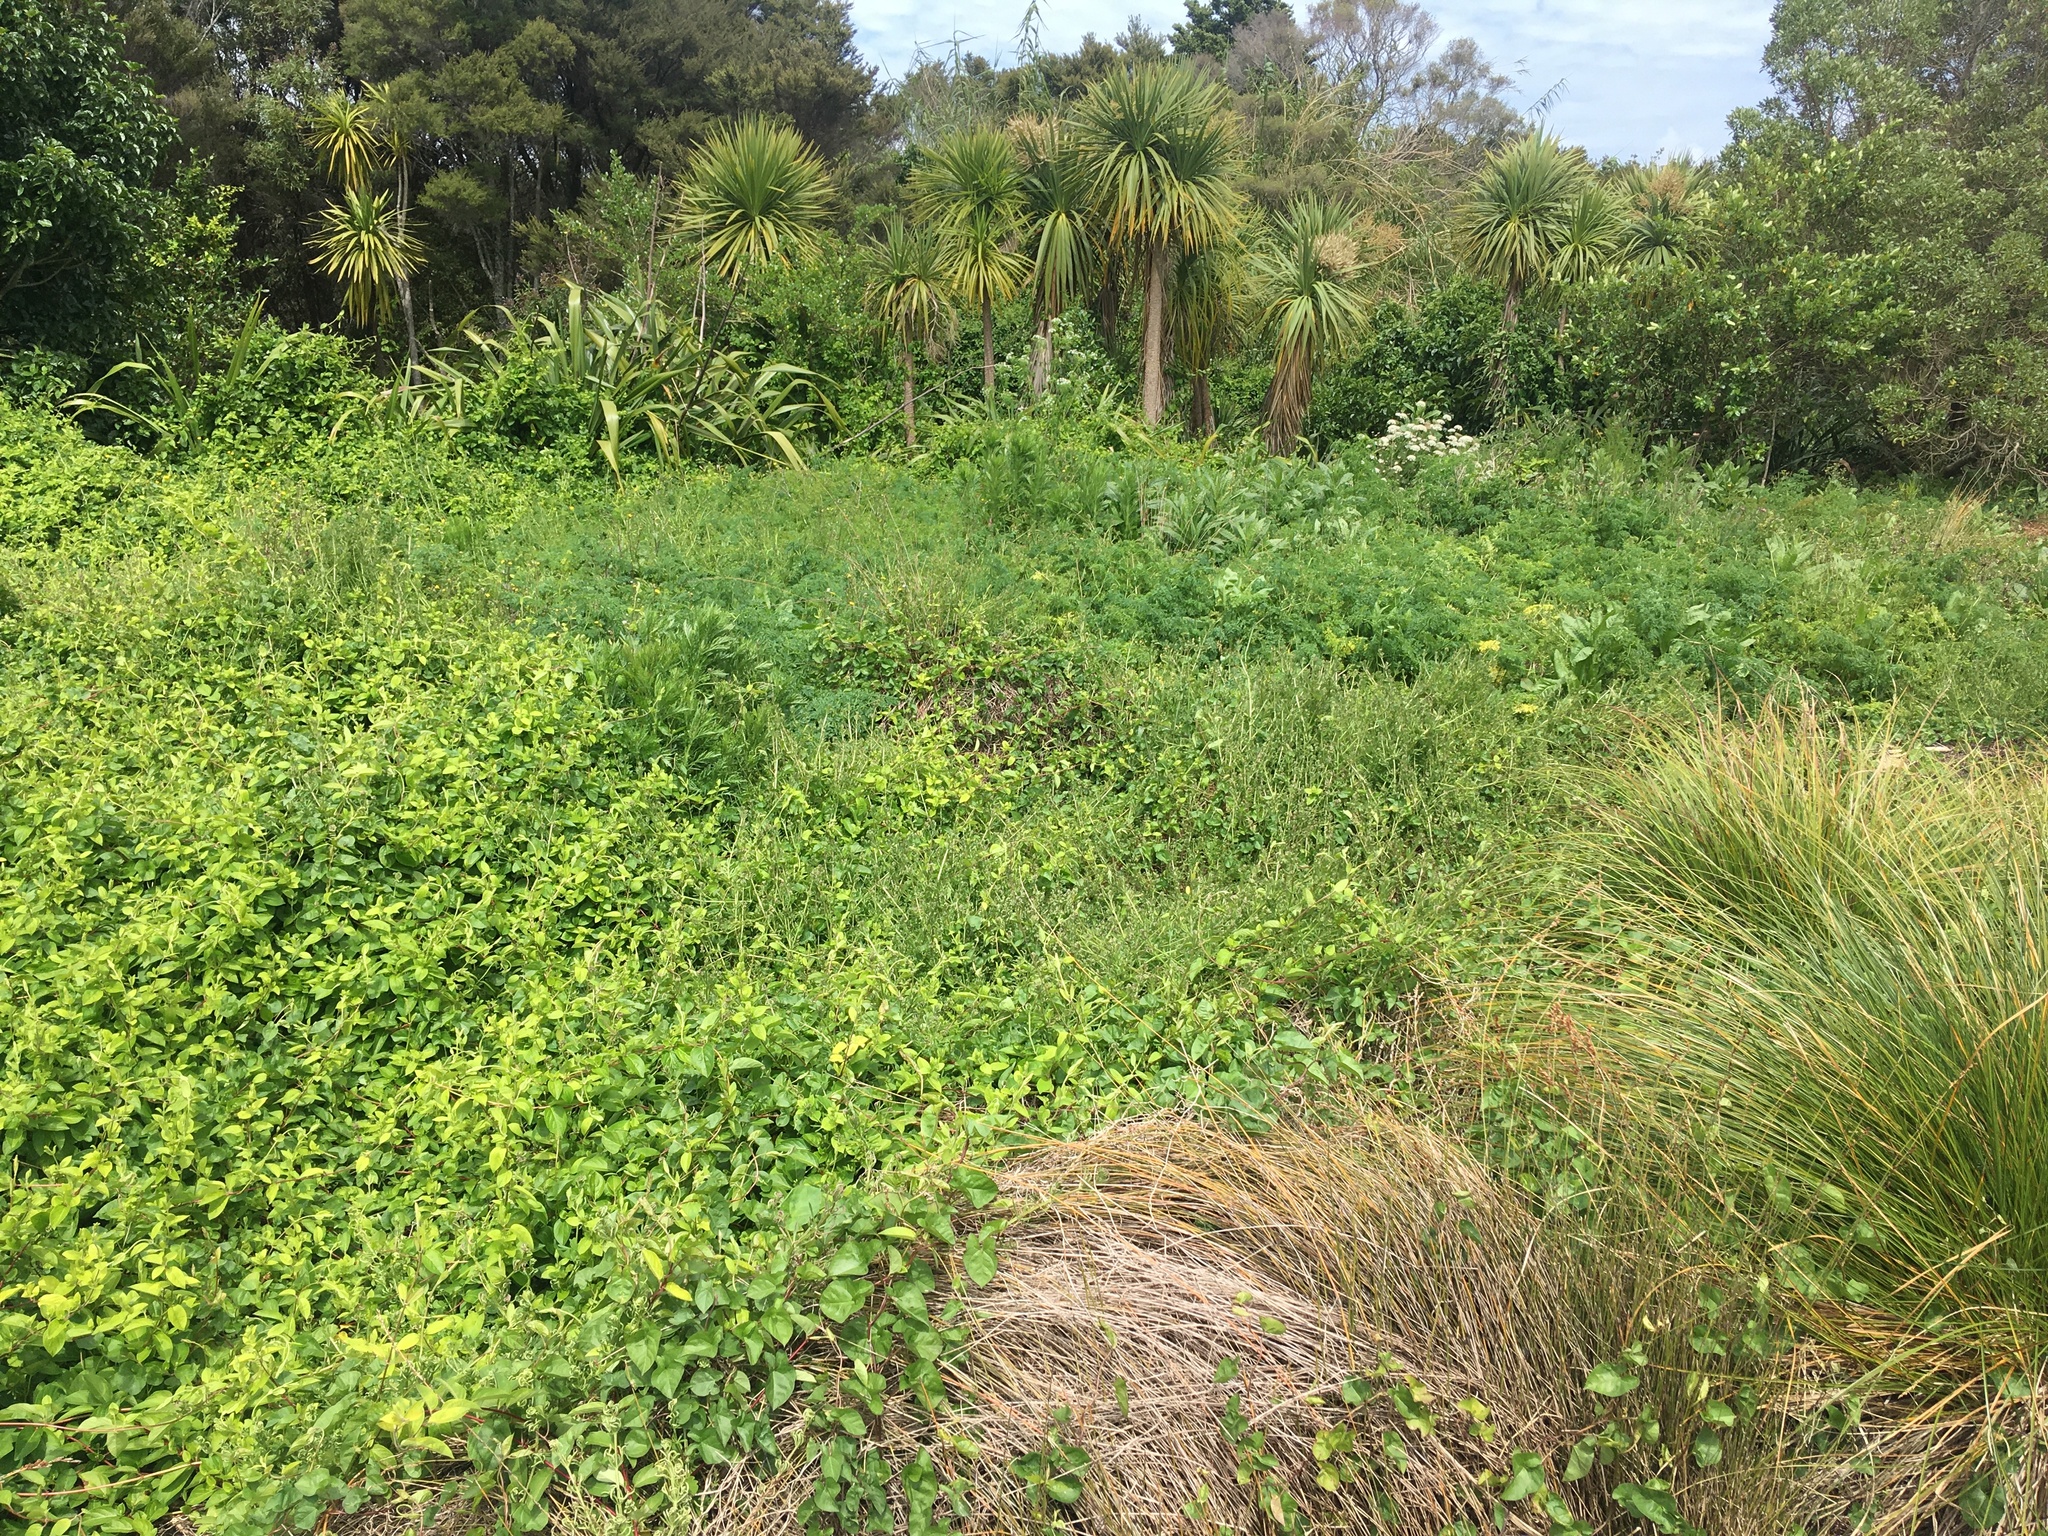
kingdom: Plantae
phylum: Tracheophyta
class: Liliopsida
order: Asparagales
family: Asparagaceae
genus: Cordyline
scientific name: Cordyline australis
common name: Cabbage-palm
